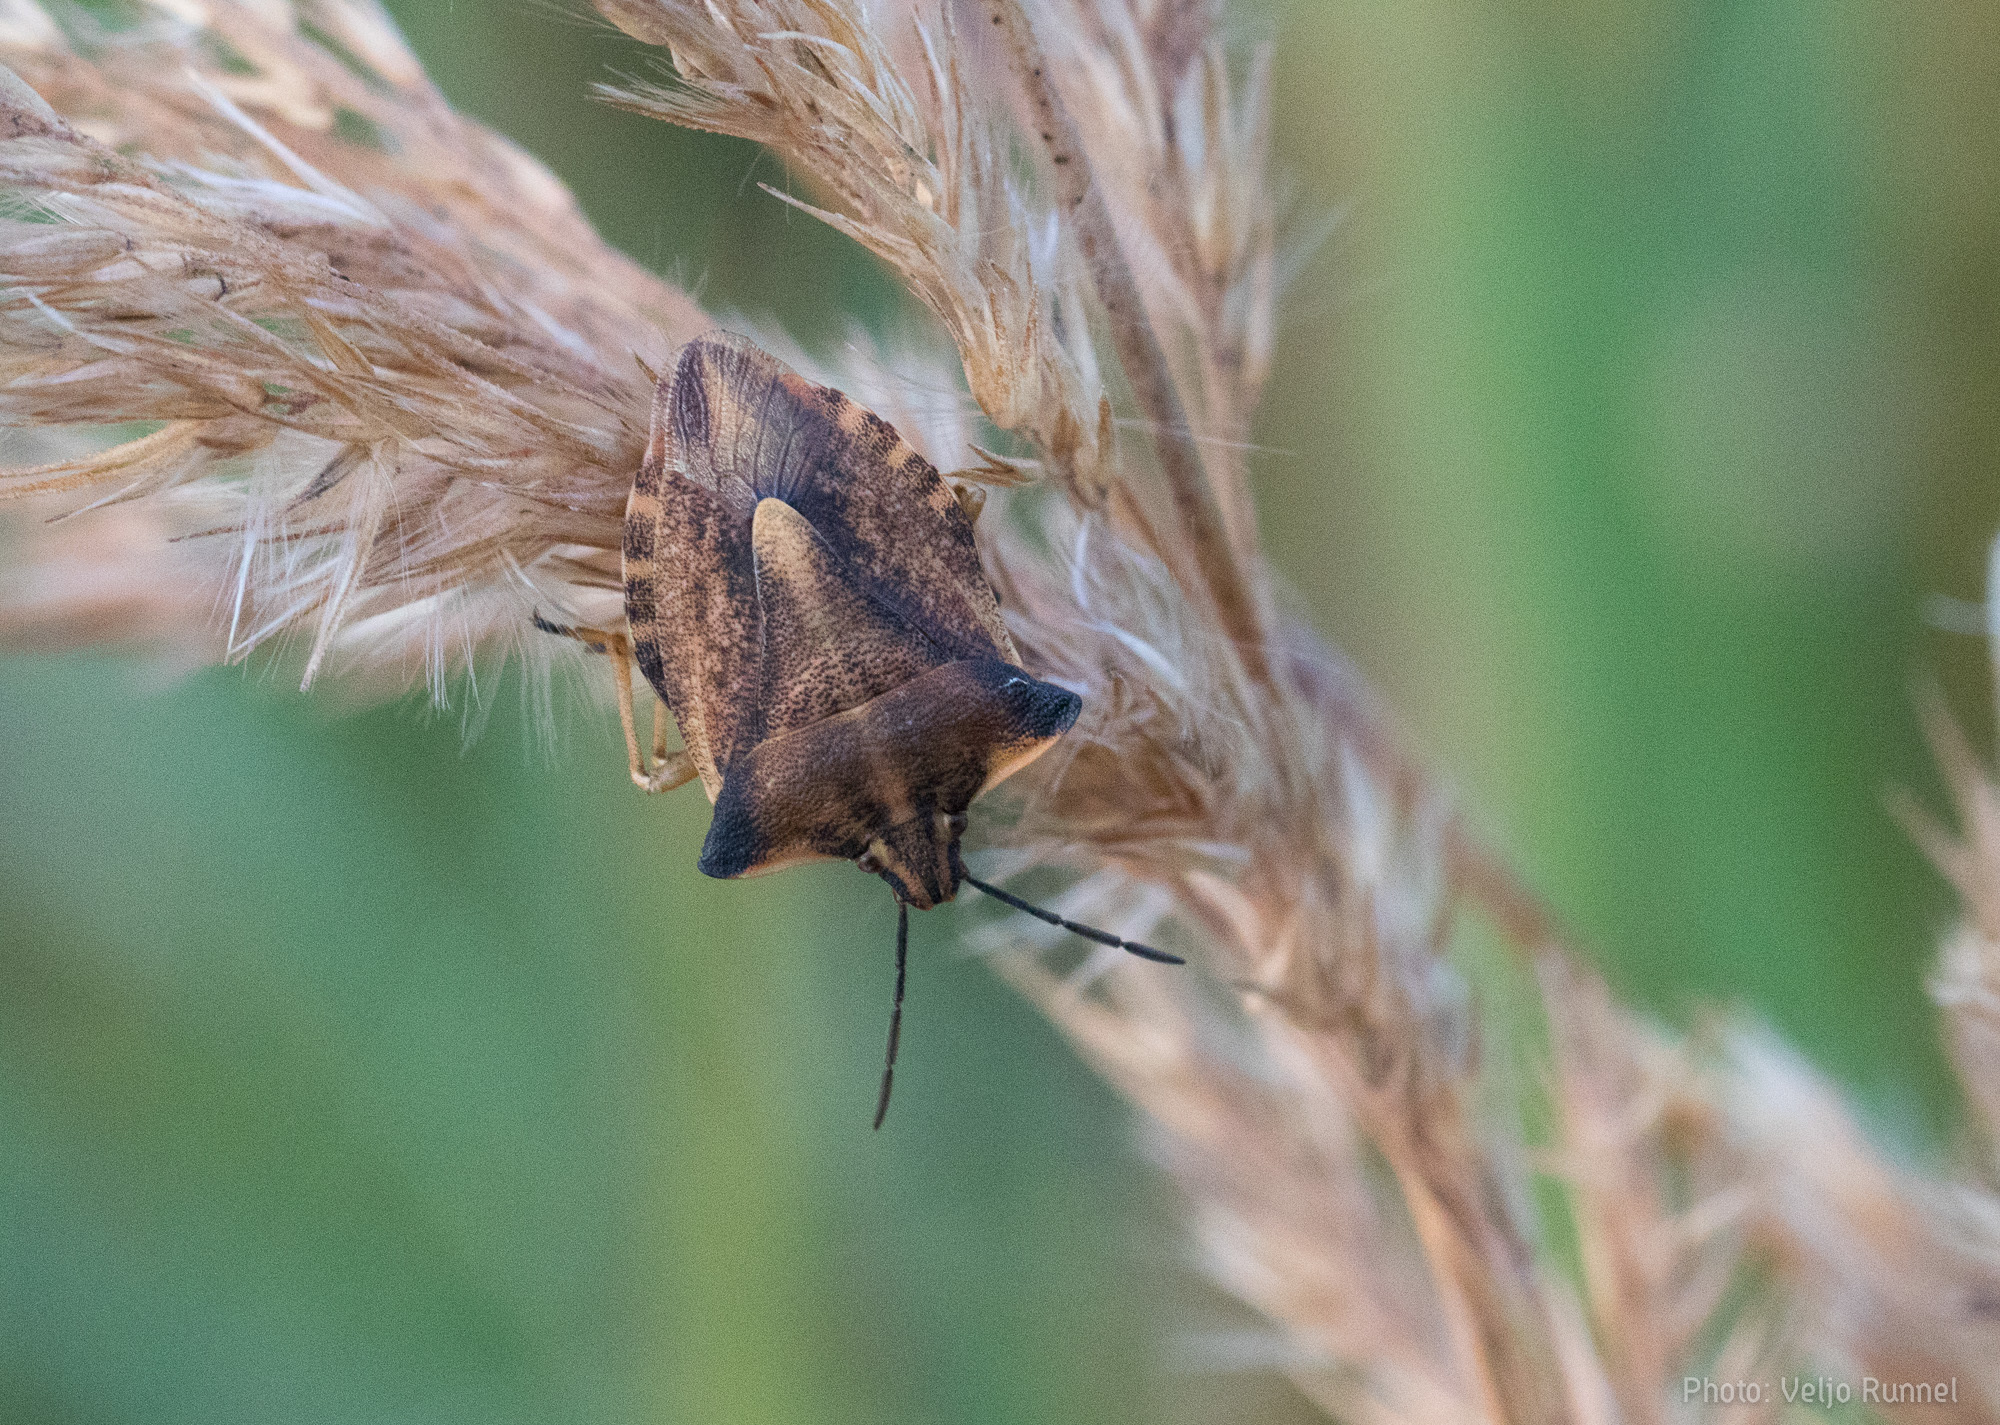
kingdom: Animalia
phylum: Arthropoda
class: Insecta
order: Hemiptera
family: Pentatomidae
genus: Carpocoris
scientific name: Carpocoris fuscispinus
